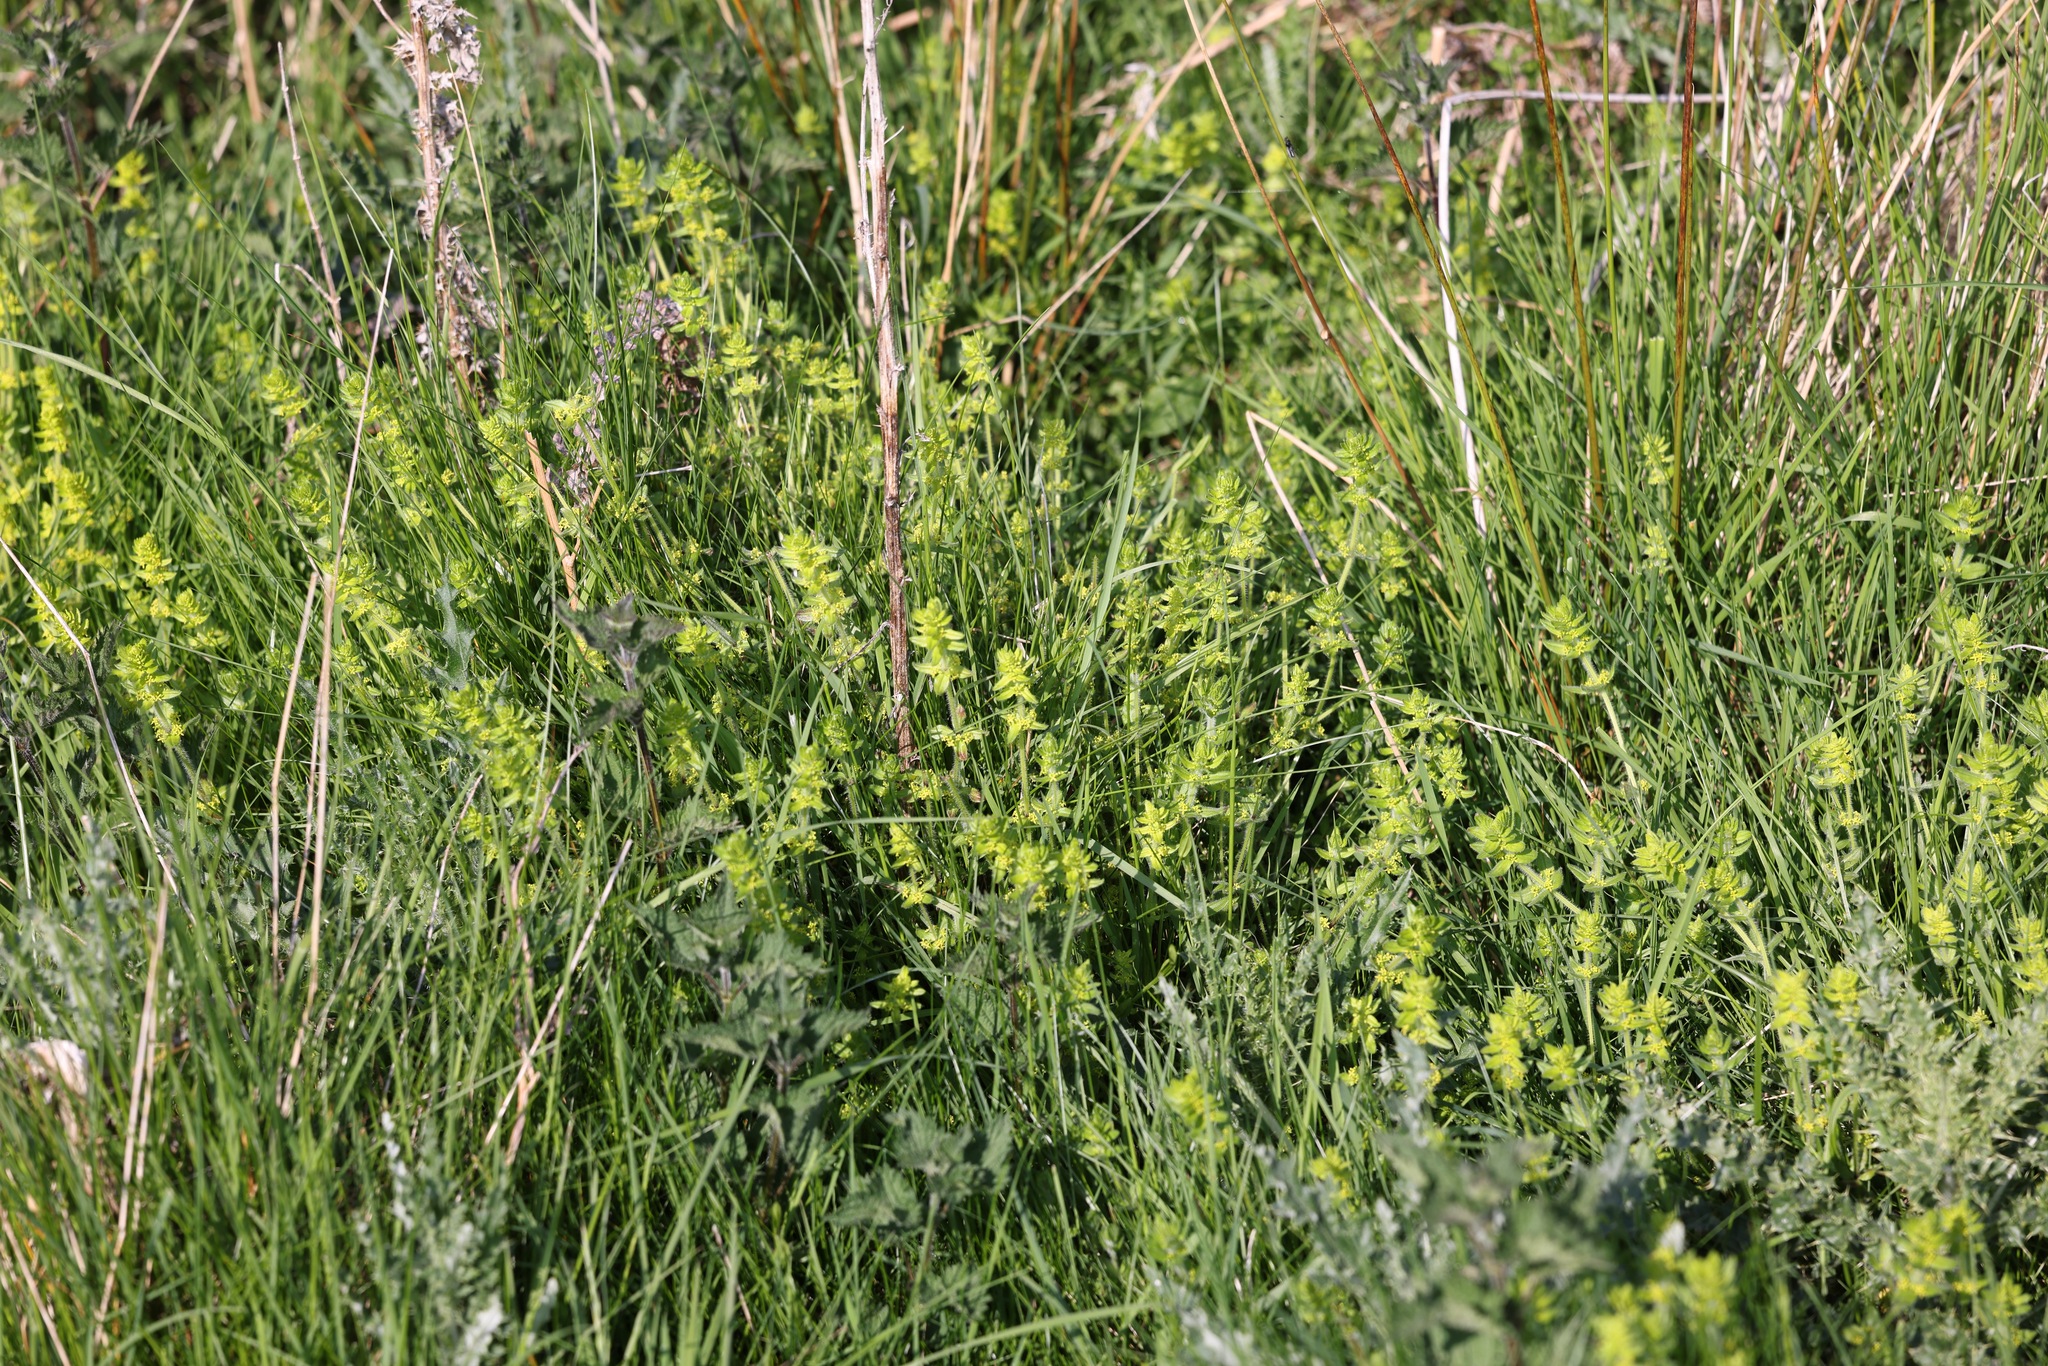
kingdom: Plantae
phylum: Tracheophyta
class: Magnoliopsida
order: Gentianales
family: Rubiaceae
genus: Cruciata
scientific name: Cruciata laevipes
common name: Crosswort
